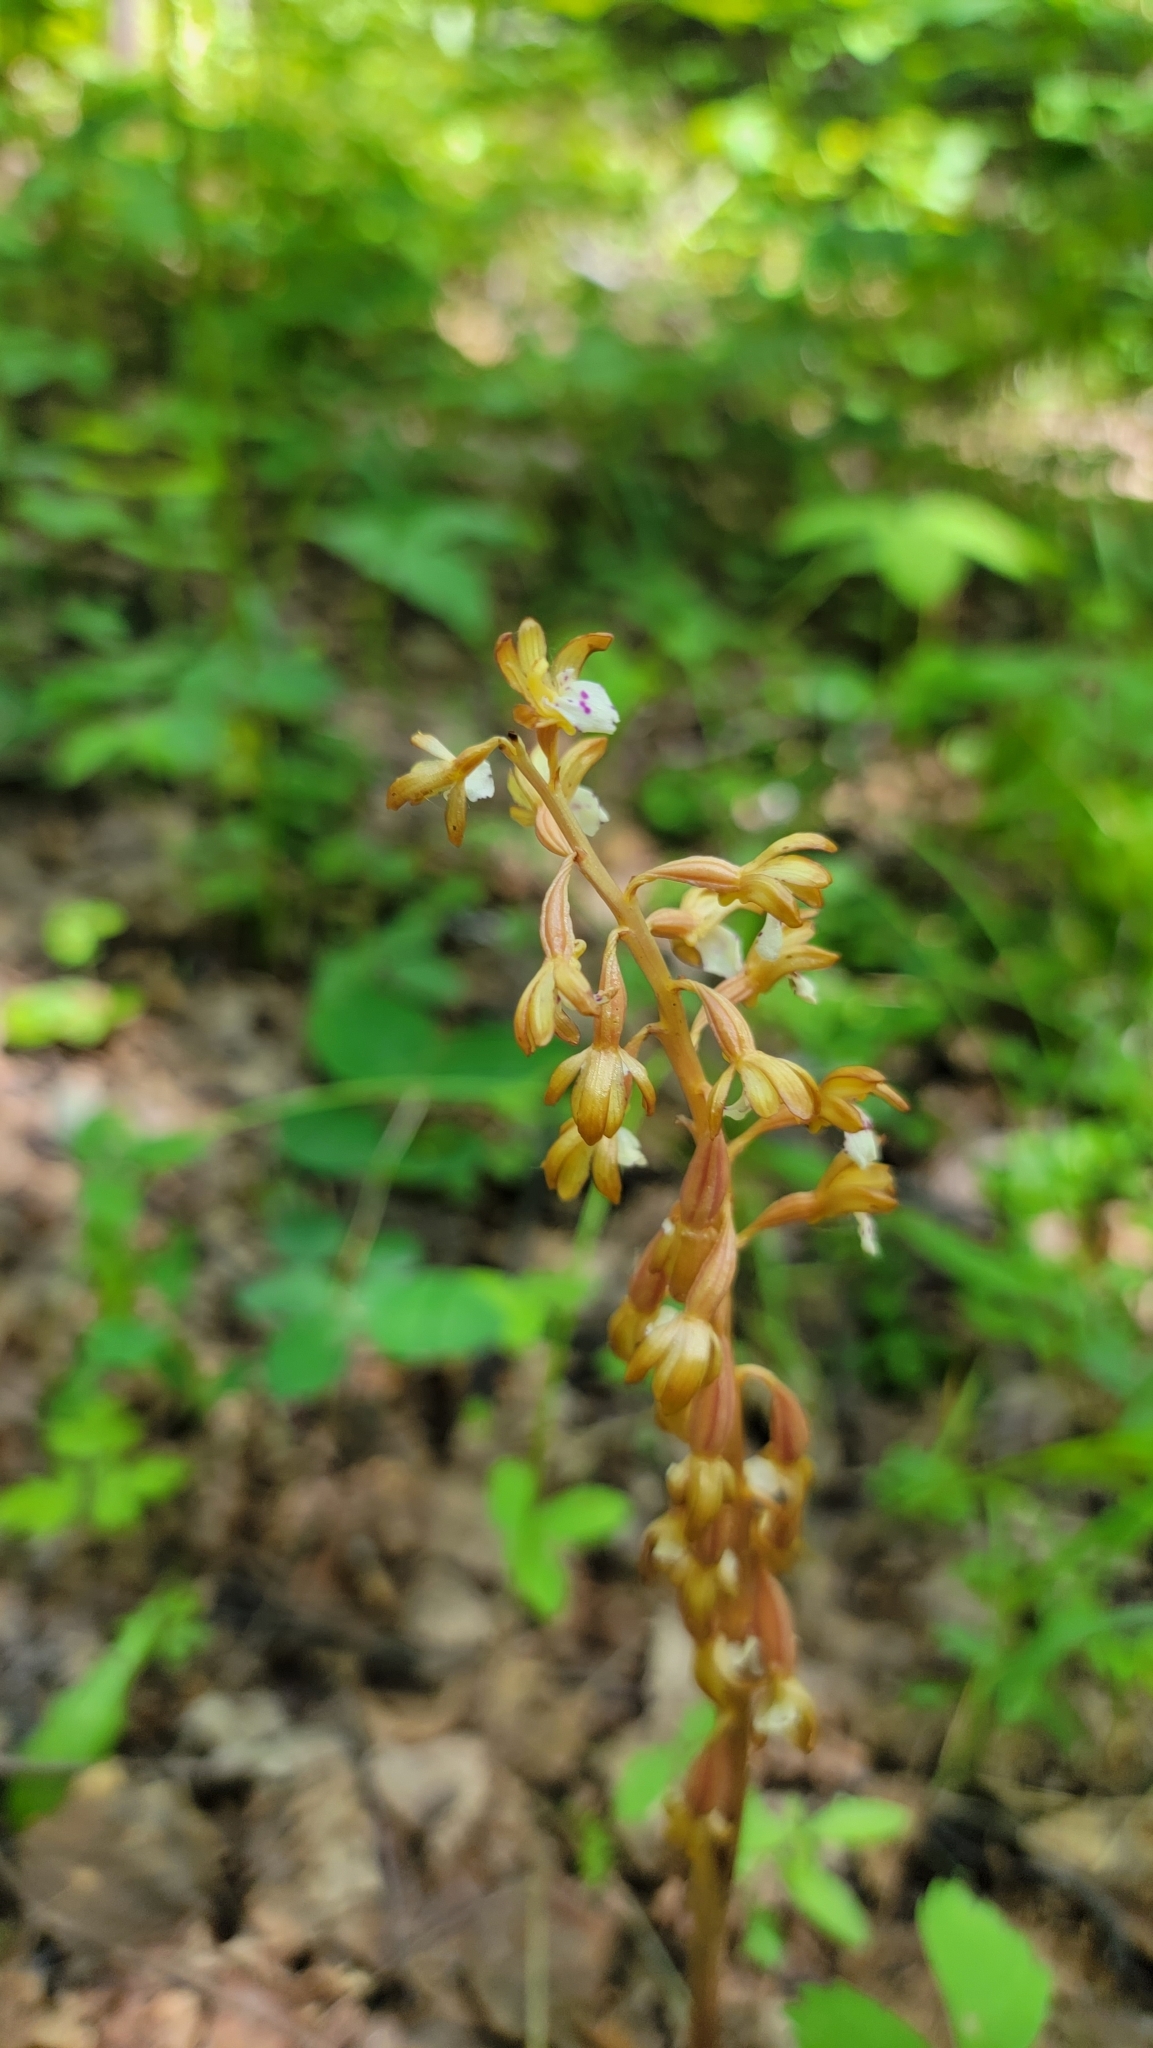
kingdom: Plantae
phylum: Tracheophyta
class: Liliopsida
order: Asparagales
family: Orchidaceae
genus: Corallorhiza
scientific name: Corallorhiza maculata
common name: Spotted coralroot
